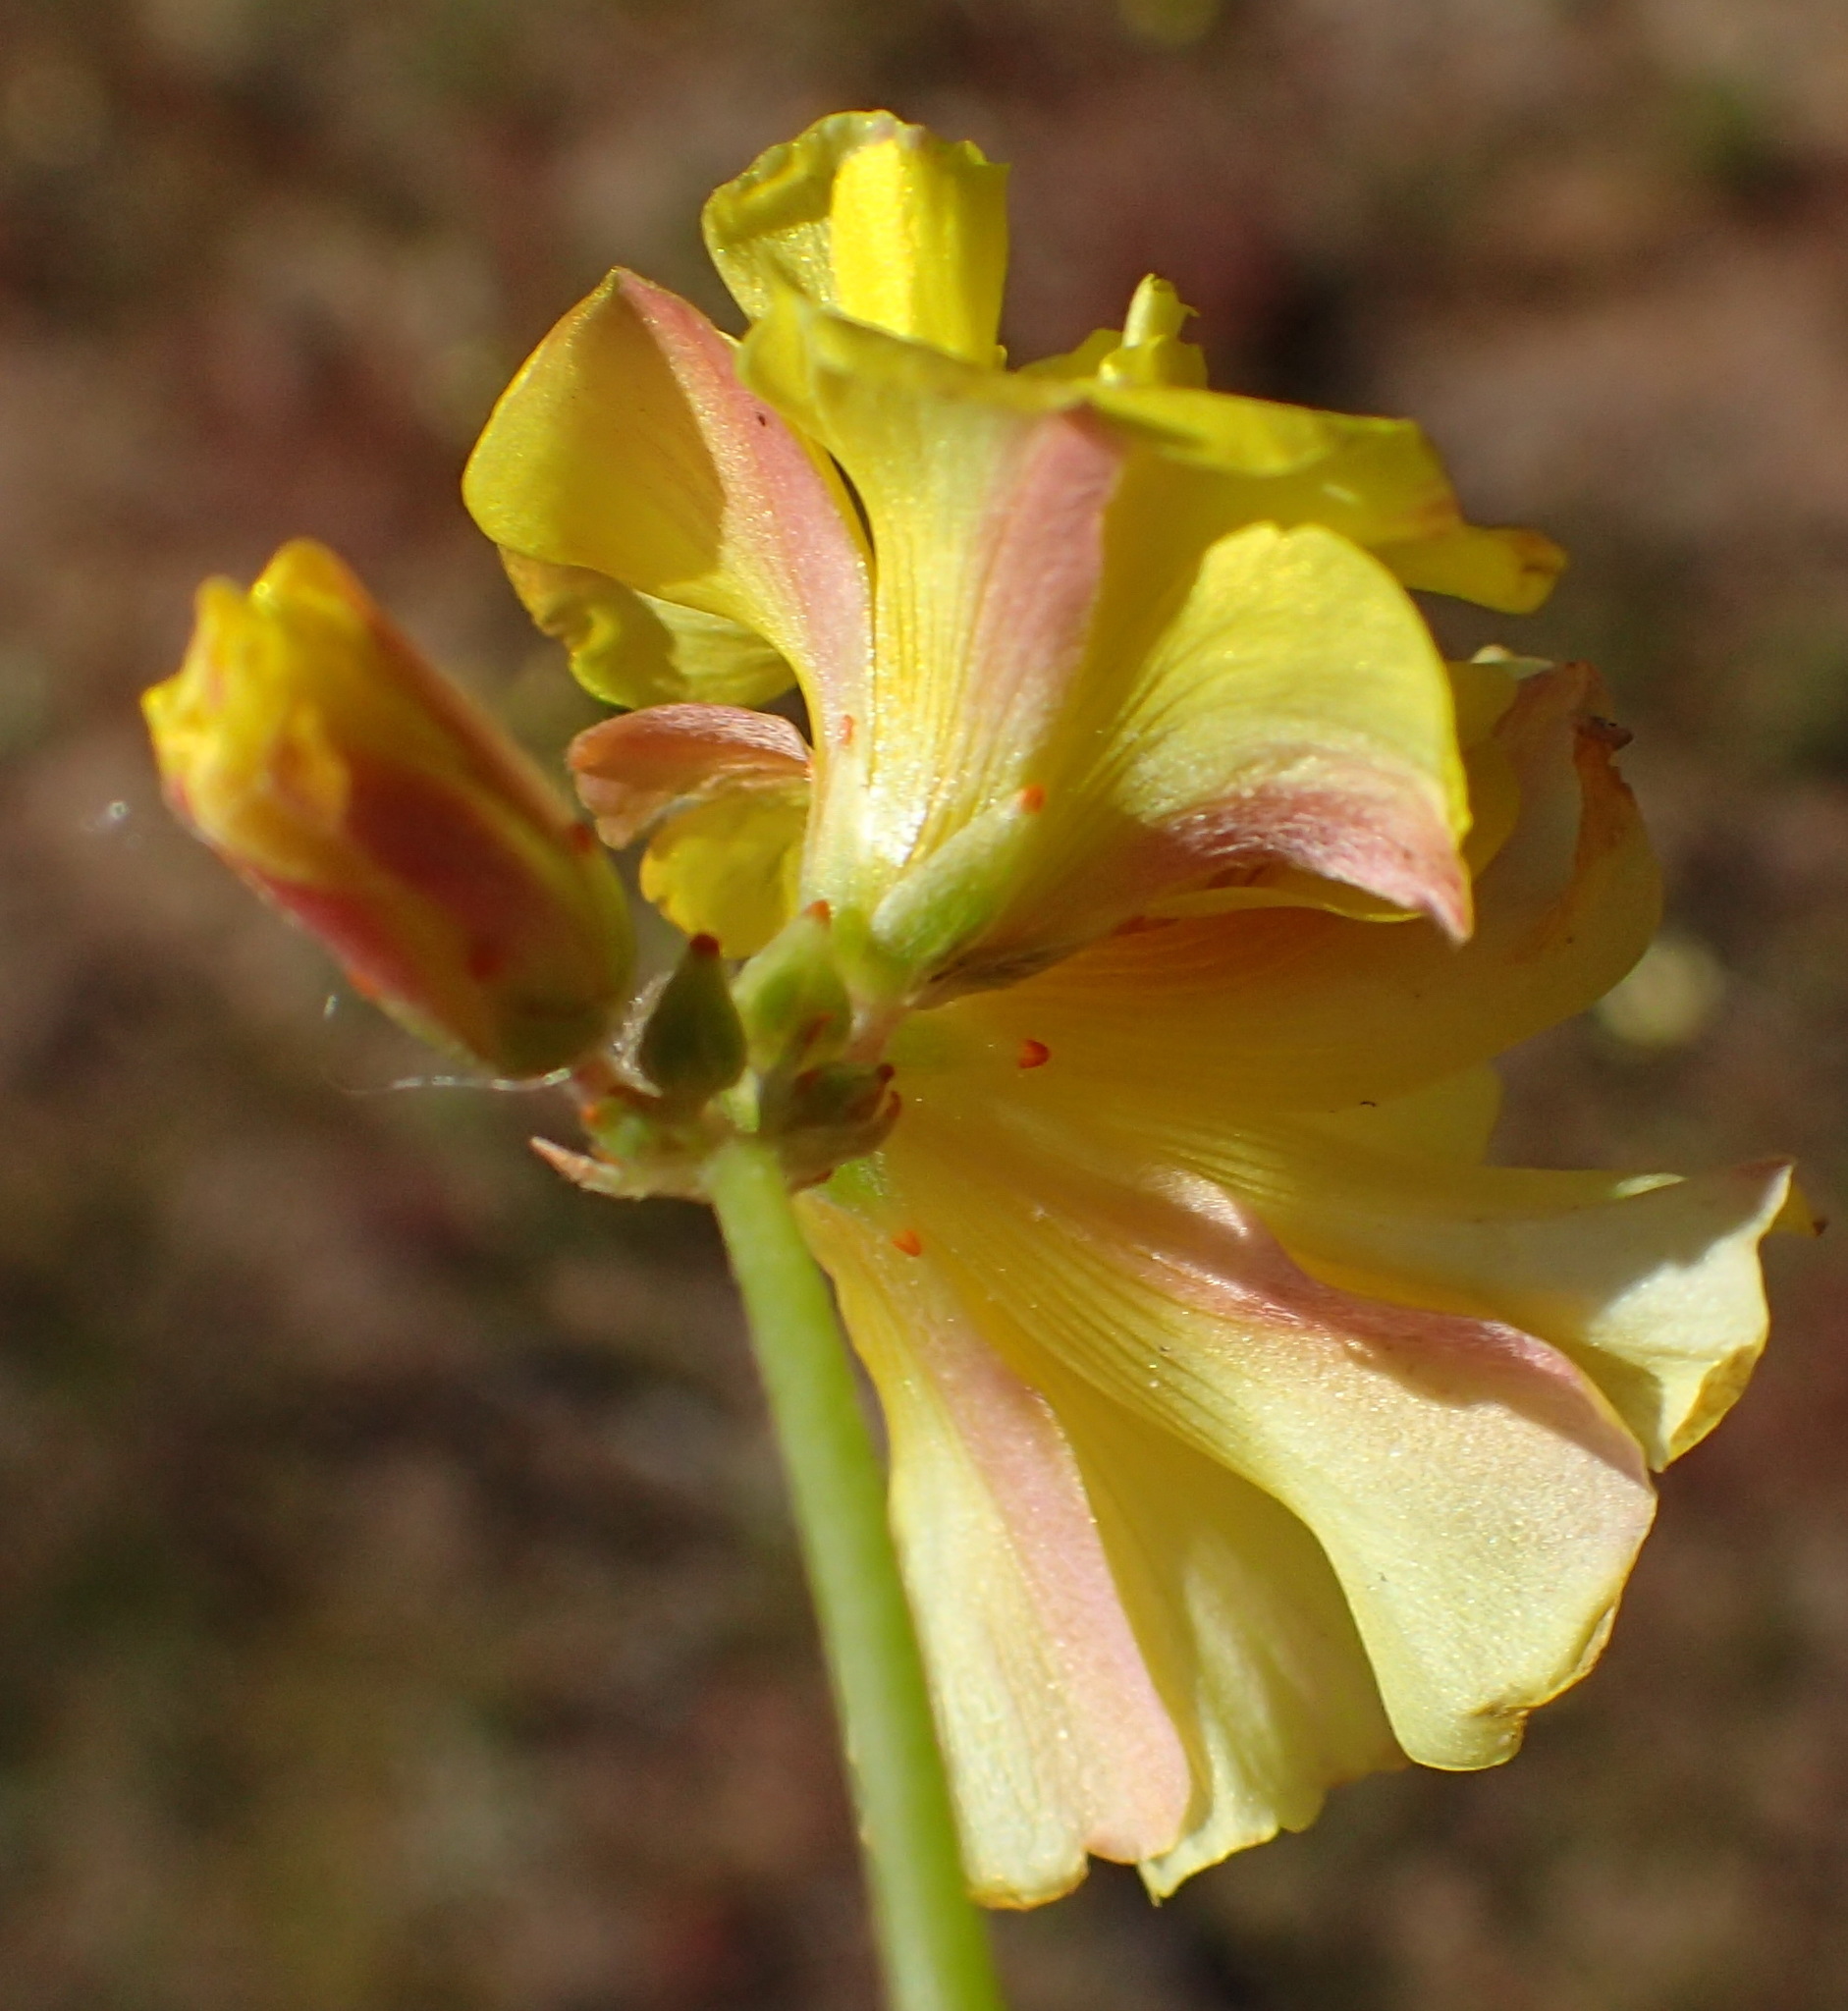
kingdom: Plantae
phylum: Tracheophyta
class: Magnoliopsida
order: Oxalidales
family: Oxalidaceae
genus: Oxalis
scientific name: Oxalis pes-caprae
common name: Bermuda-buttercup
